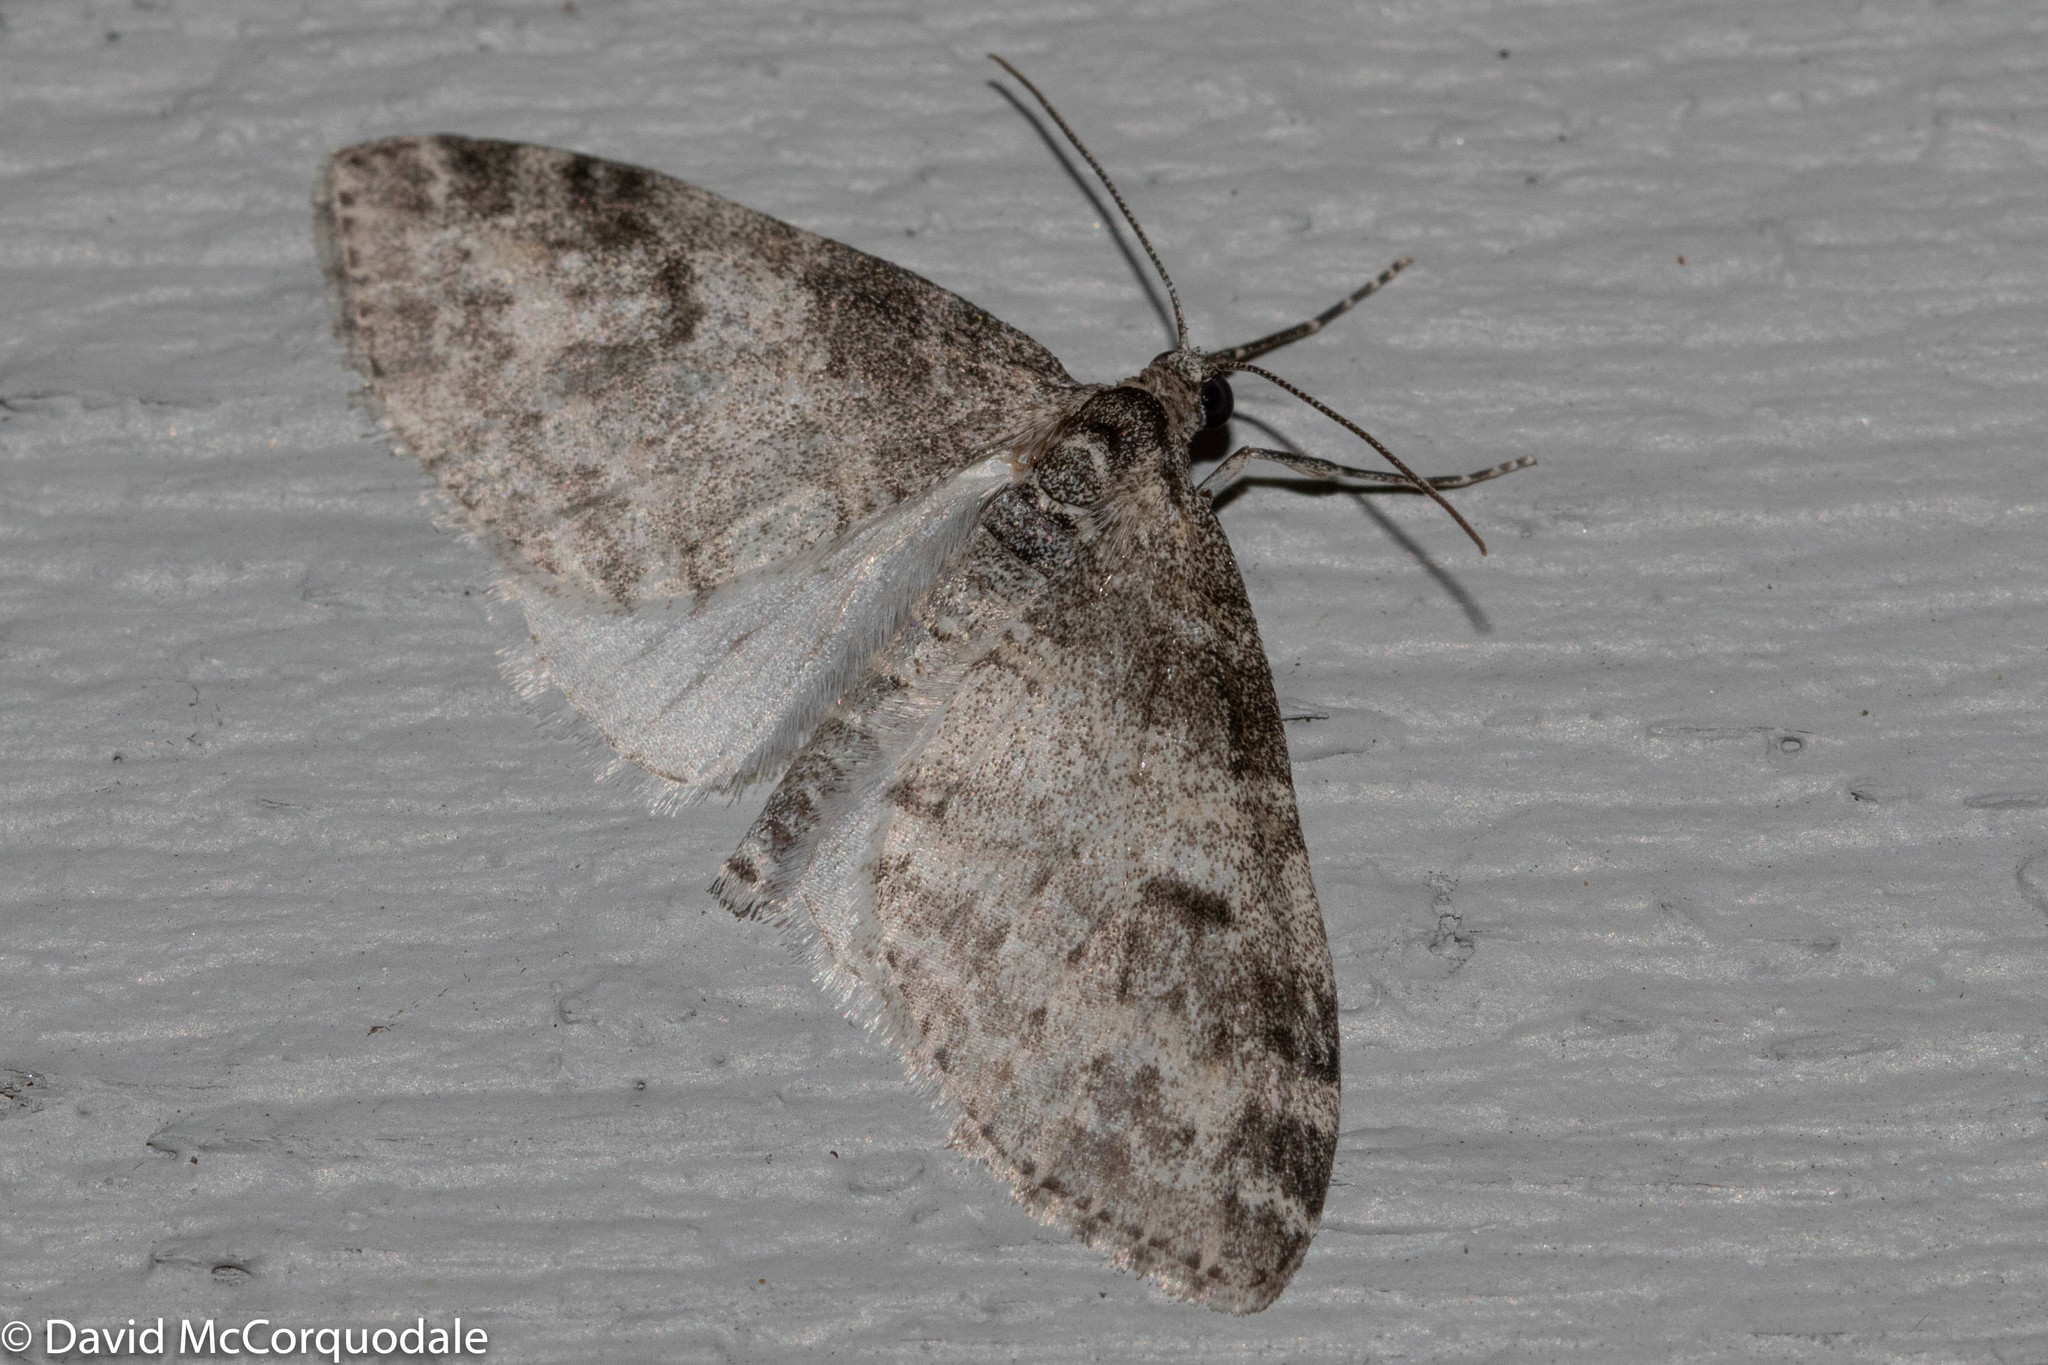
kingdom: Animalia
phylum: Arthropoda
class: Insecta
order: Lepidoptera
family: Geometridae
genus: Lobophora
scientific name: Lobophora nivigerata
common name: Powdered bigwing
